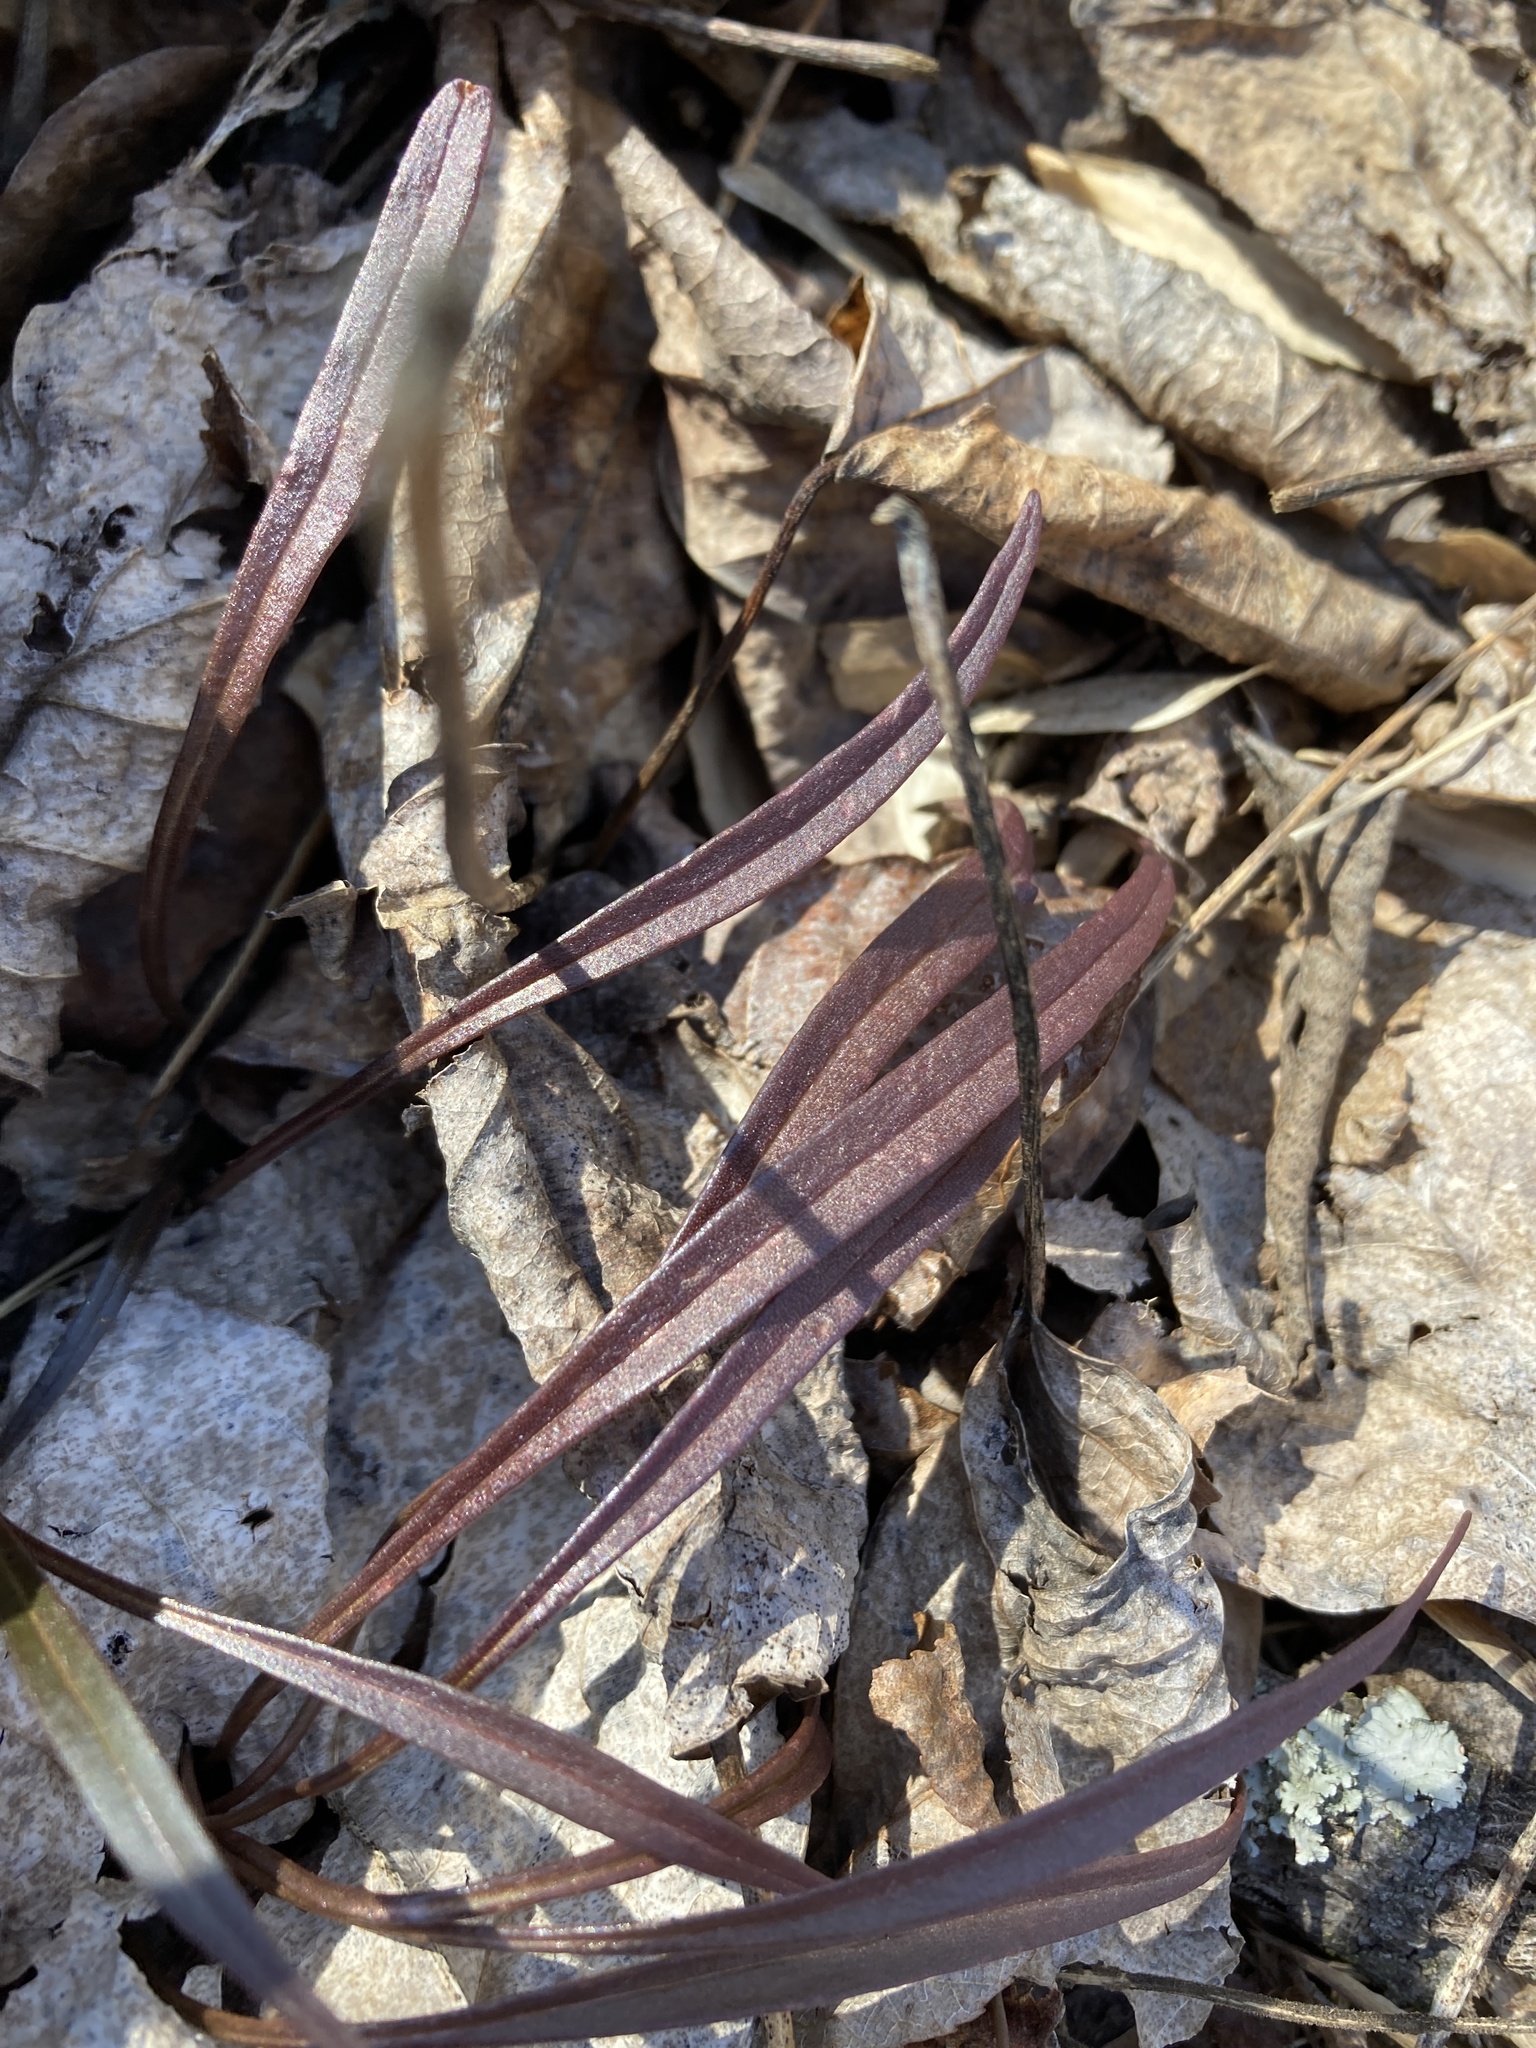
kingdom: Plantae
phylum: Tracheophyta
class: Magnoliopsida
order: Caryophyllales
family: Montiaceae
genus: Claytonia
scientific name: Claytonia virginica
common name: Virginia springbeauty
